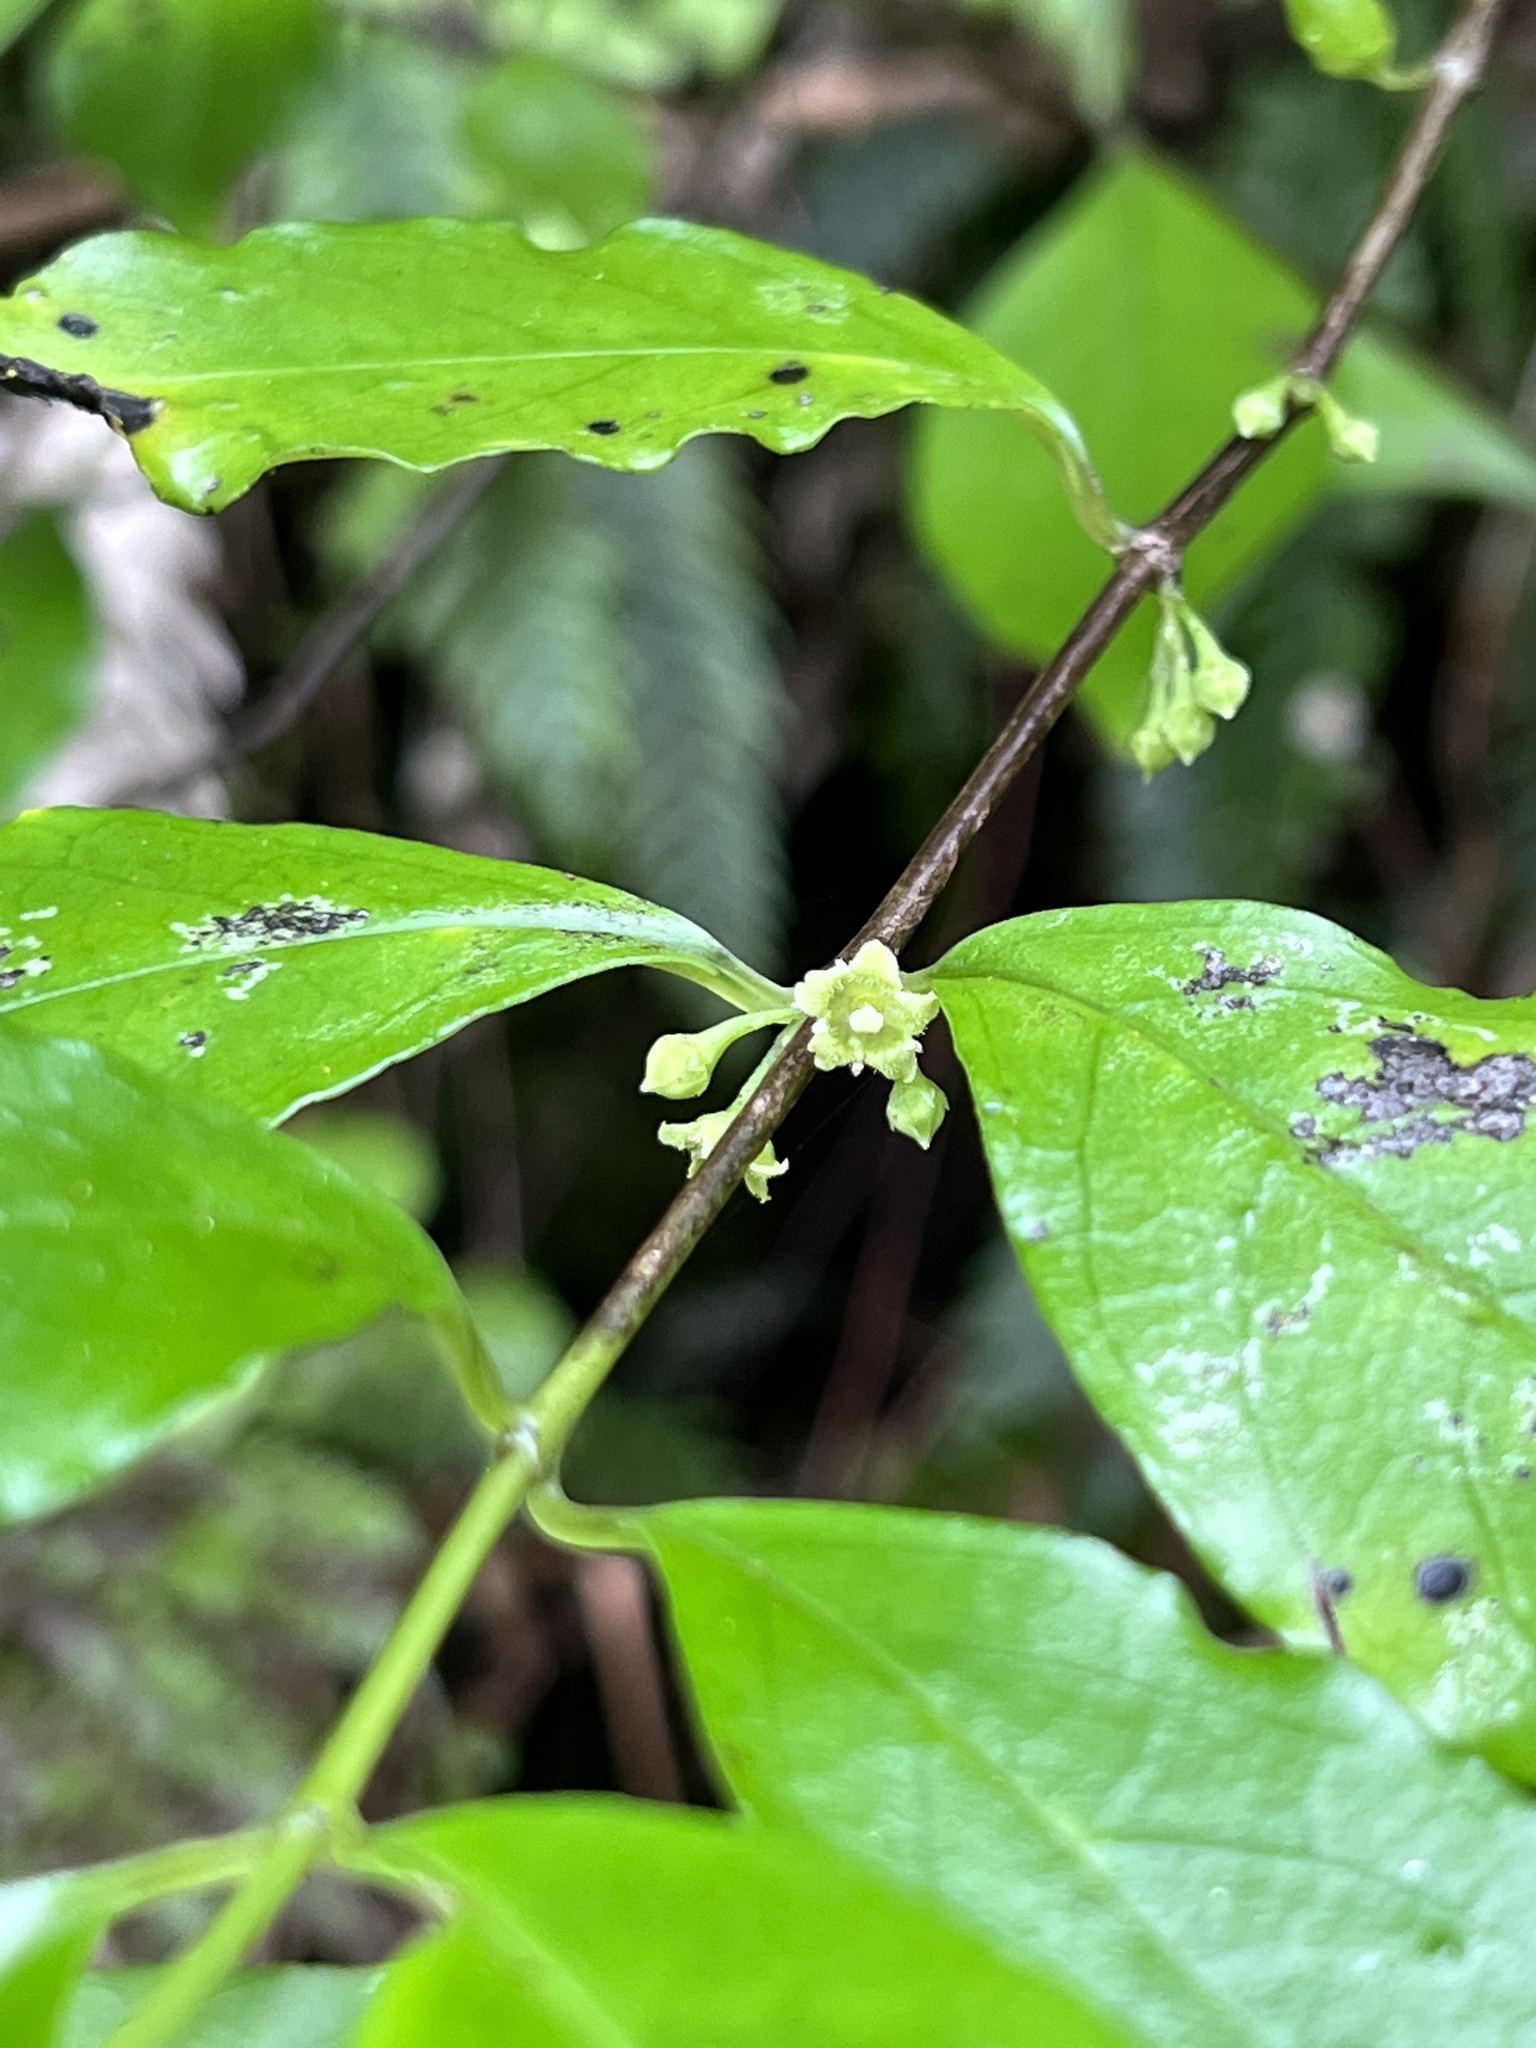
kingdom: Plantae
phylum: Tracheophyta
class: Magnoliopsida
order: Gentianales
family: Loganiaceae
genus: Geniostoma
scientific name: Geniostoma ligustrifolium
